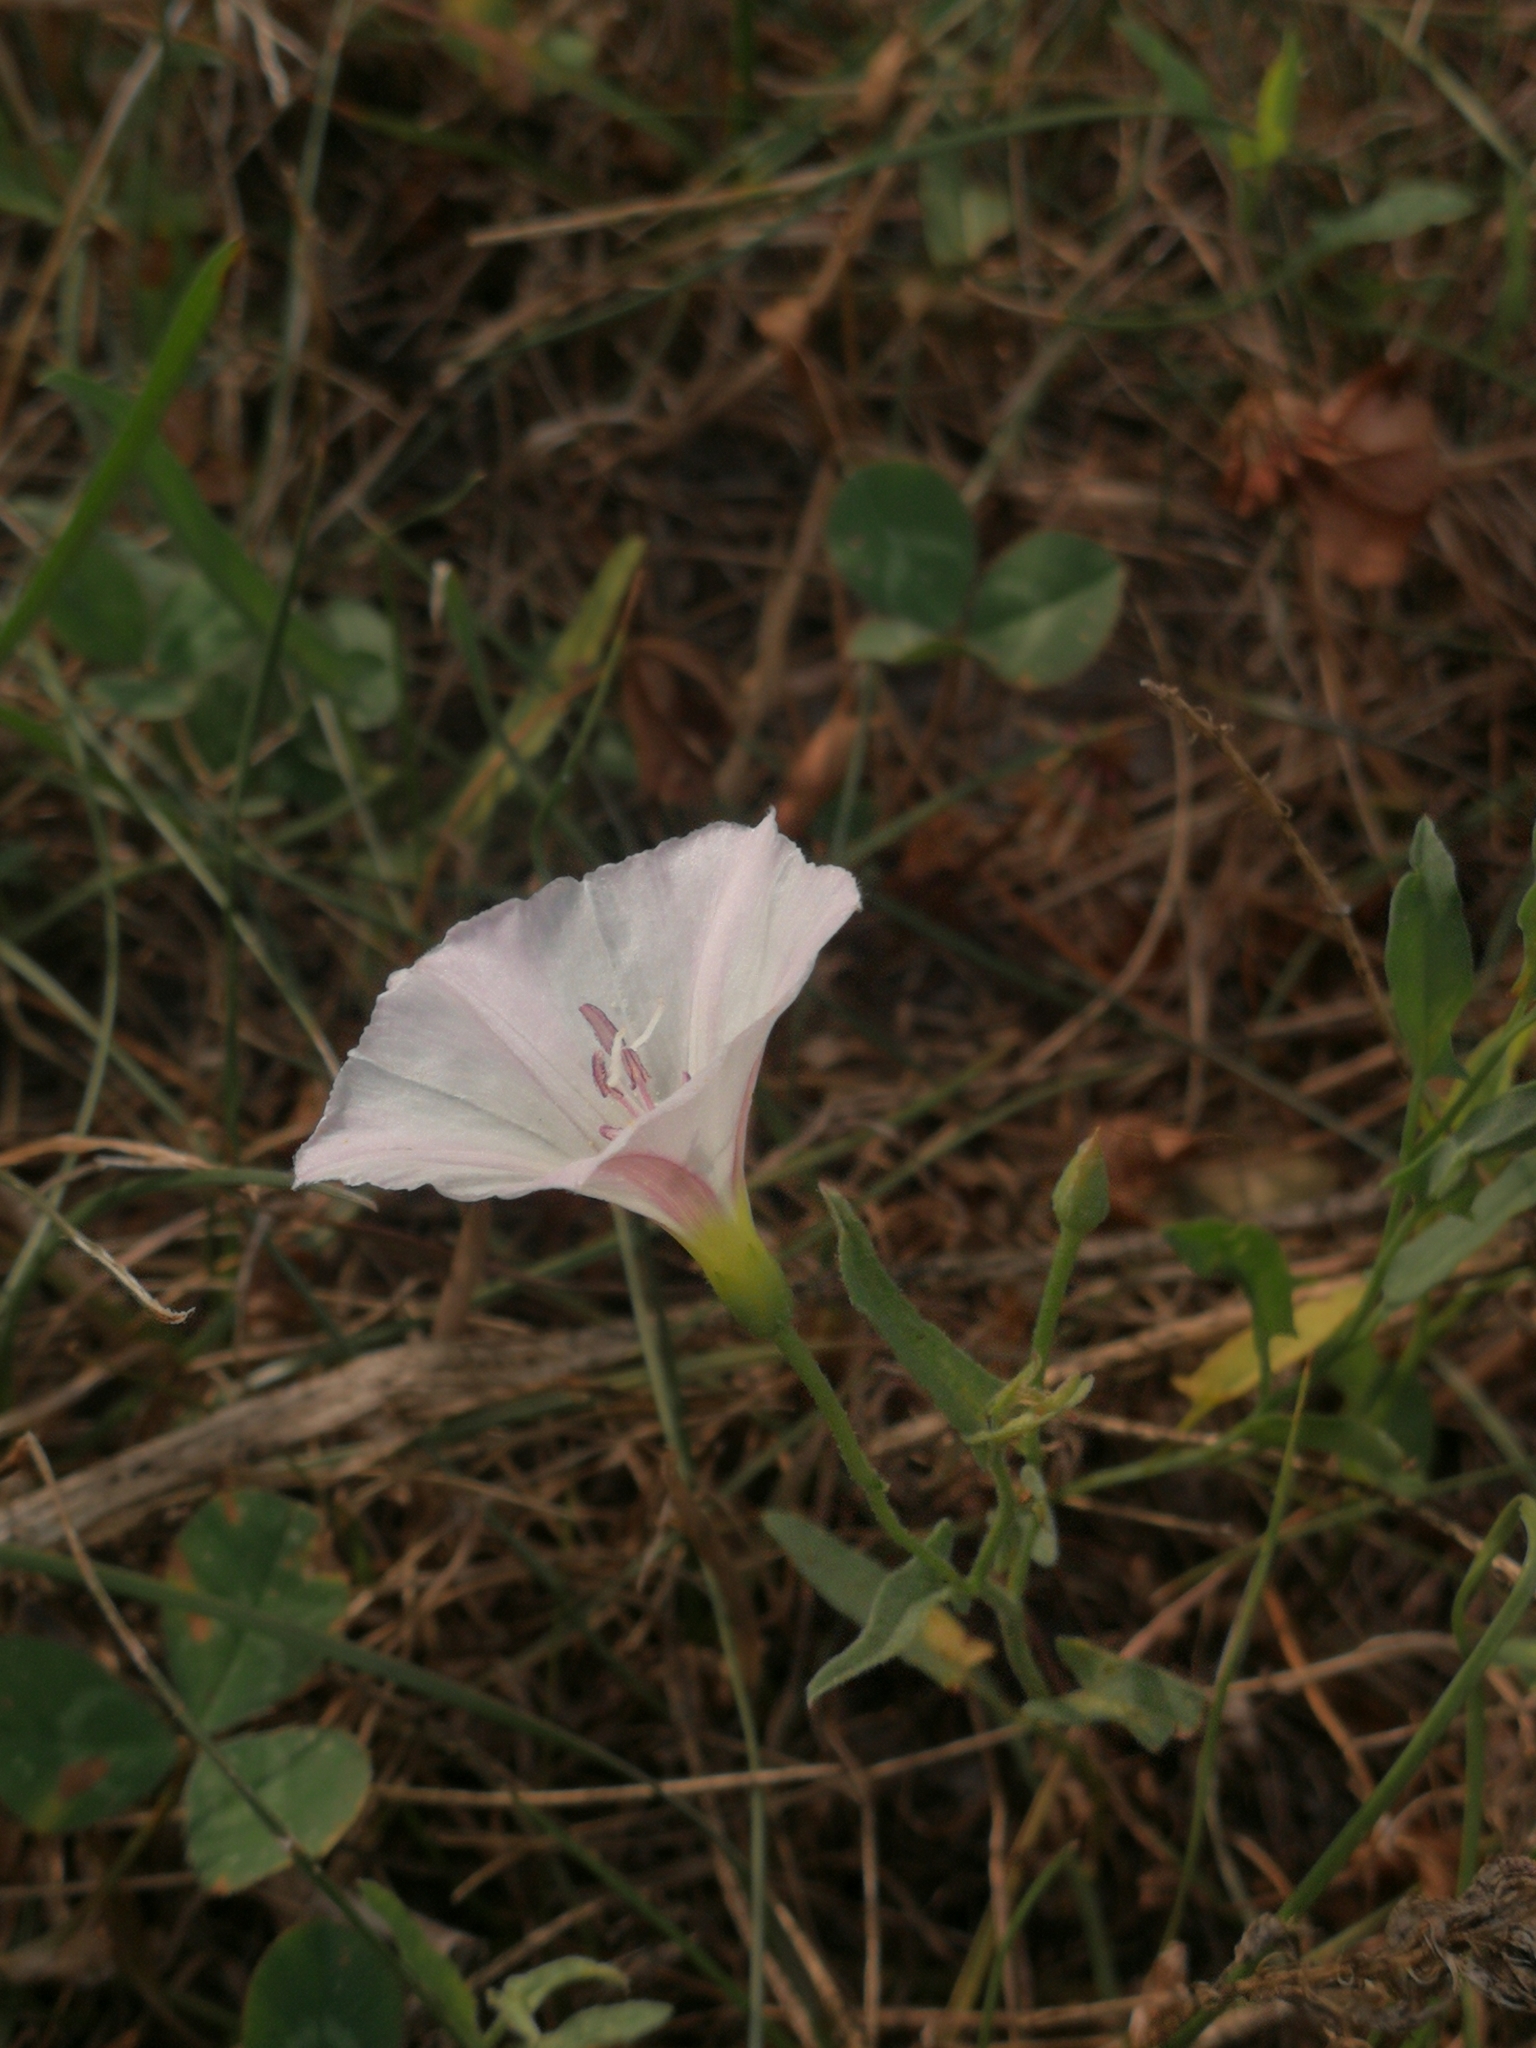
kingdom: Plantae
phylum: Tracheophyta
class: Magnoliopsida
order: Solanales
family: Convolvulaceae
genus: Convolvulus
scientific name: Convolvulus arvensis
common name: Field bindweed
